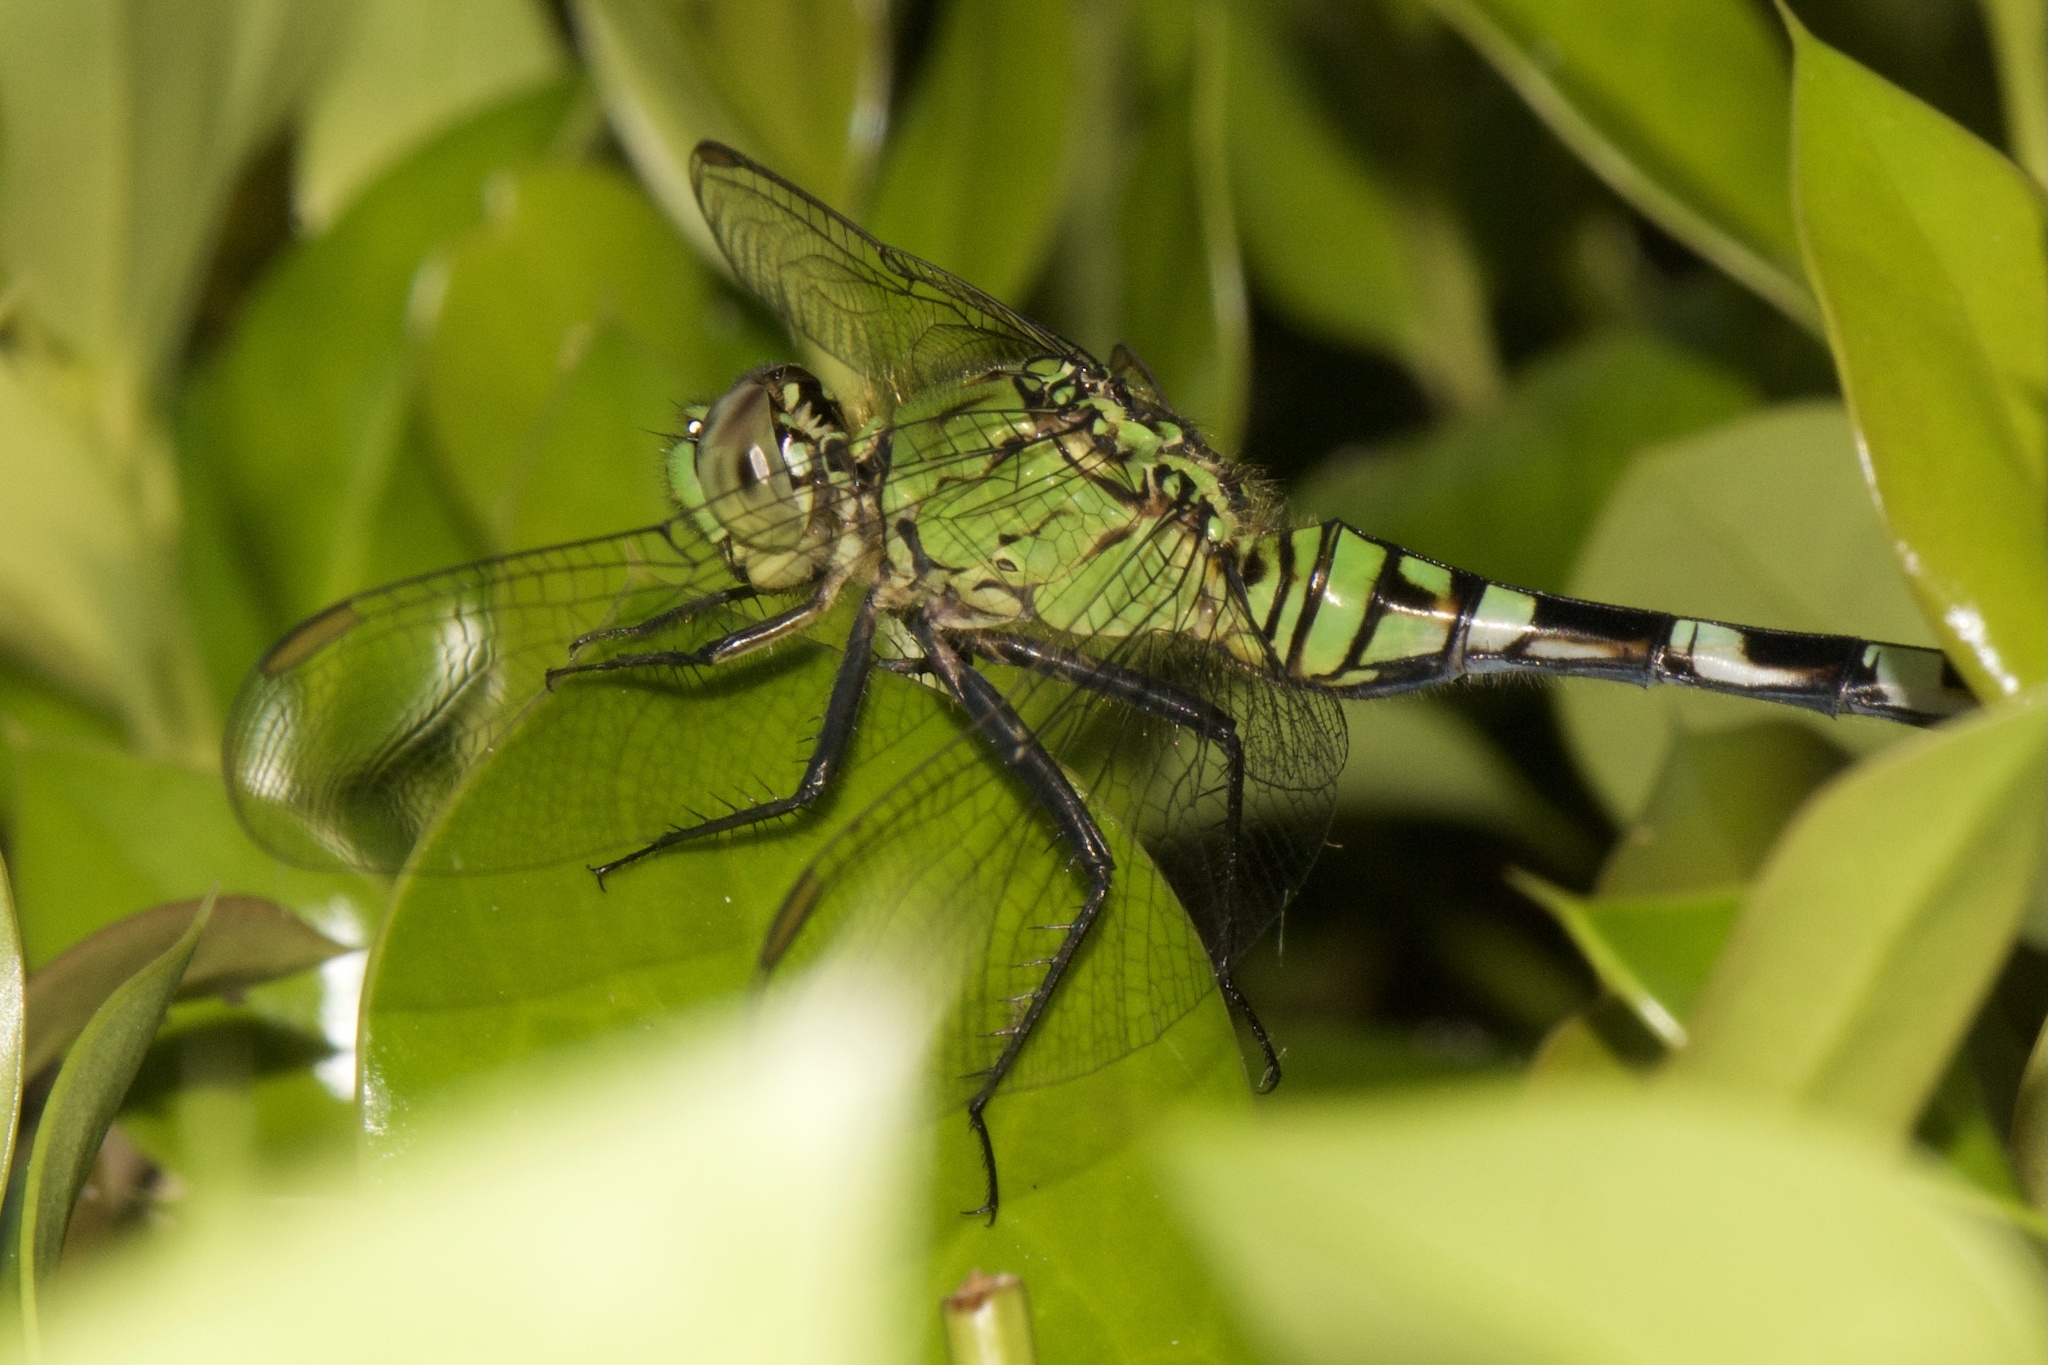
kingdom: Animalia
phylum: Arthropoda
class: Insecta
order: Odonata
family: Libellulidae
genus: Erythemis
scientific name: Erythemis simplicicollis
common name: Eastern pondhawk
